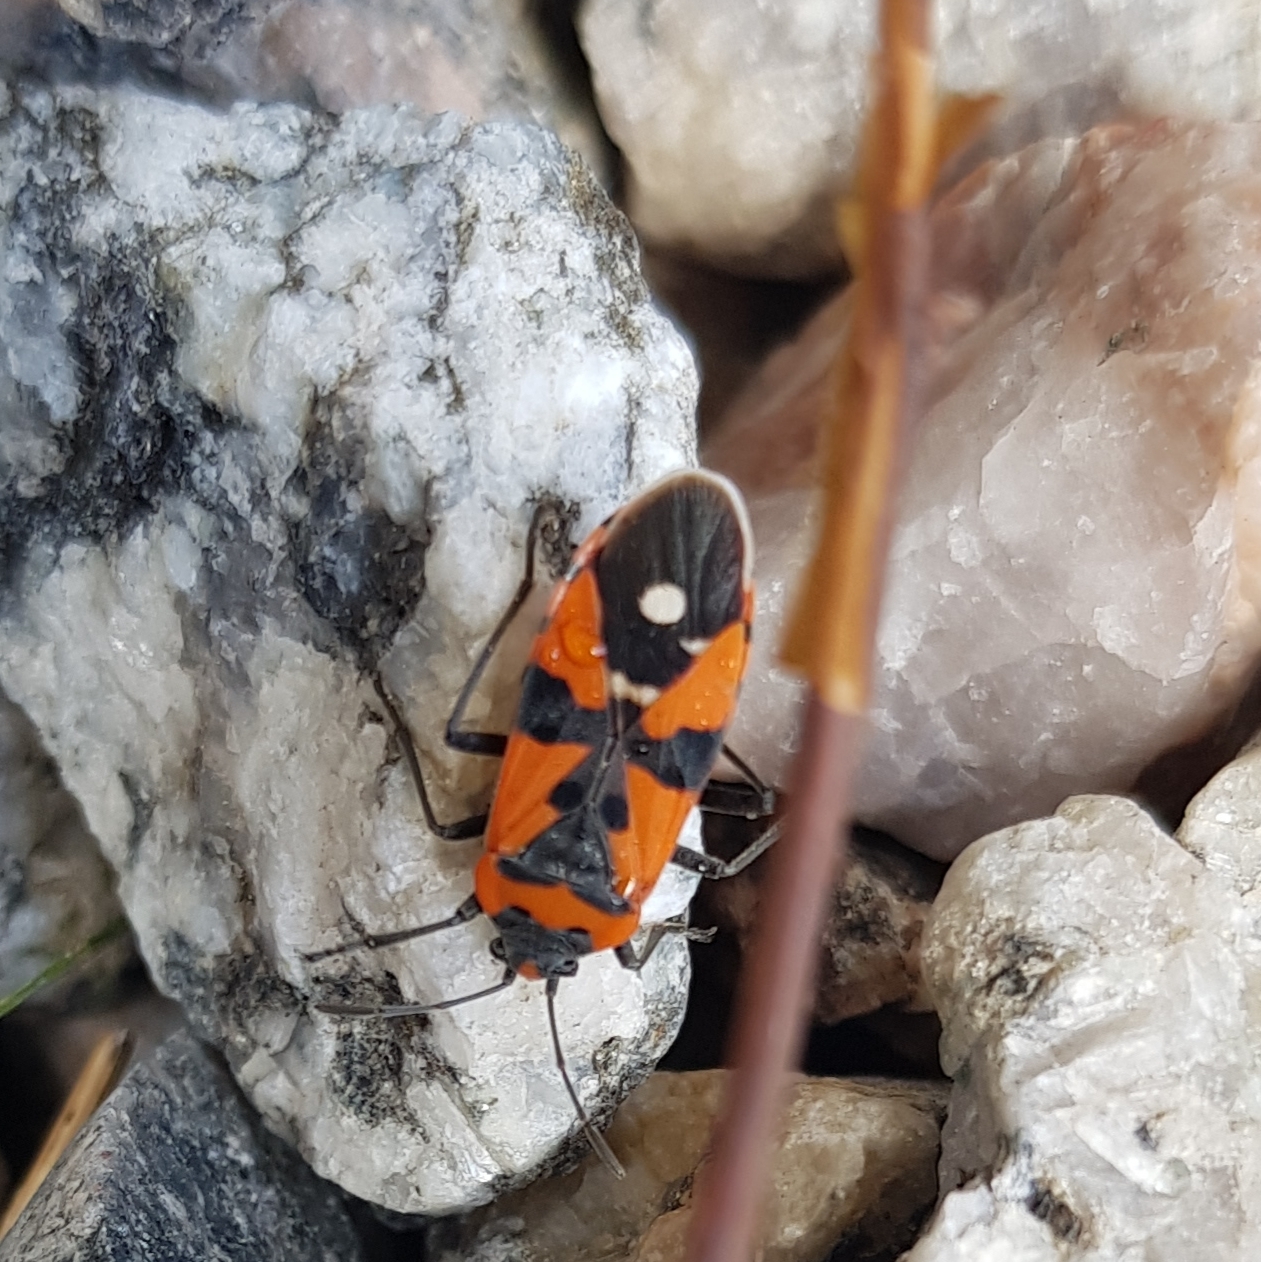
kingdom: Animalia
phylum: Arthropoda
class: Insecta
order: Hemiptera
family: Lygaeidae
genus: Lygaeus
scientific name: Lygaeus equestris
